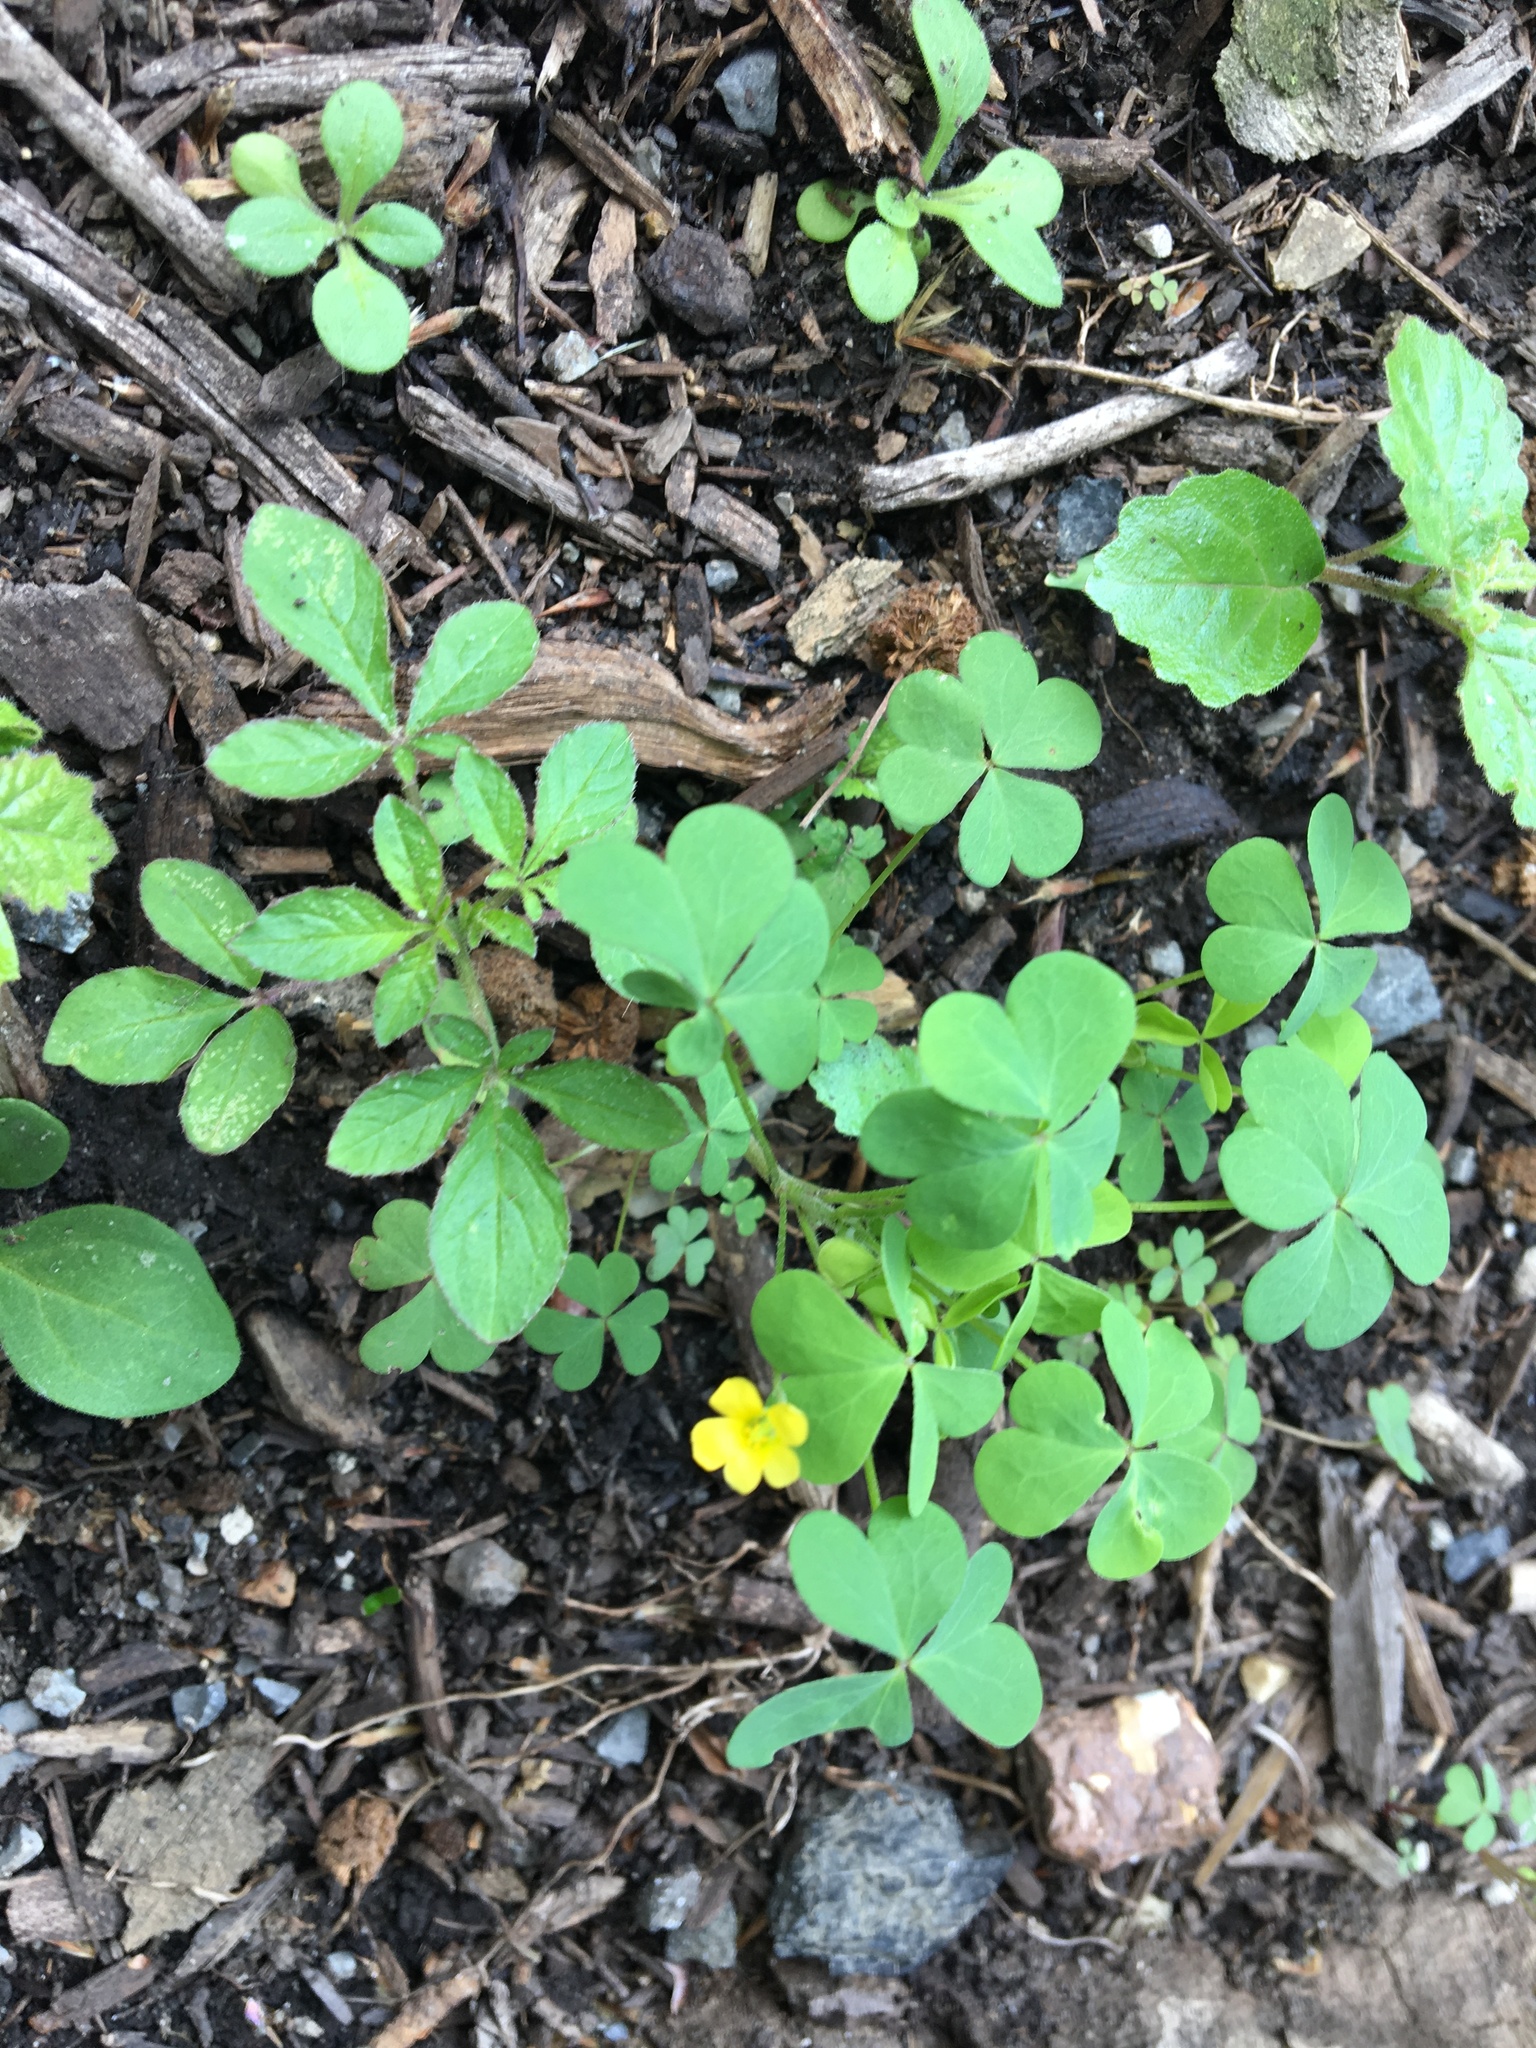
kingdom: Plantae
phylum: Tracheophyta
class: Magnoliopsida
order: Oxalidales
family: Oxalidaceae
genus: Oxalis
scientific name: Oxalis corniculata
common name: Procumbent yellow-sorrel
